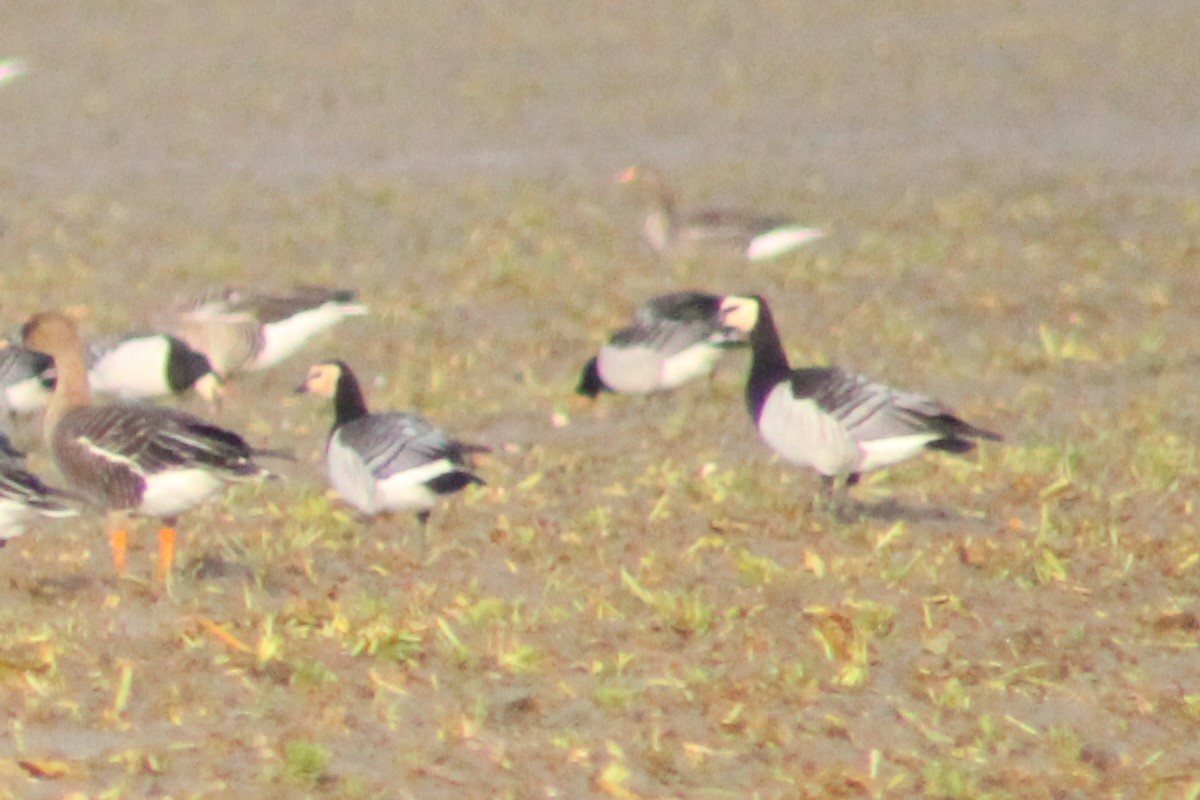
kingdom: Animalia
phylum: Chordata
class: Aves
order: Anseriformes
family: Anatidae
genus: Branta
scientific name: Branta leucopsis
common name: Barnacle goose
